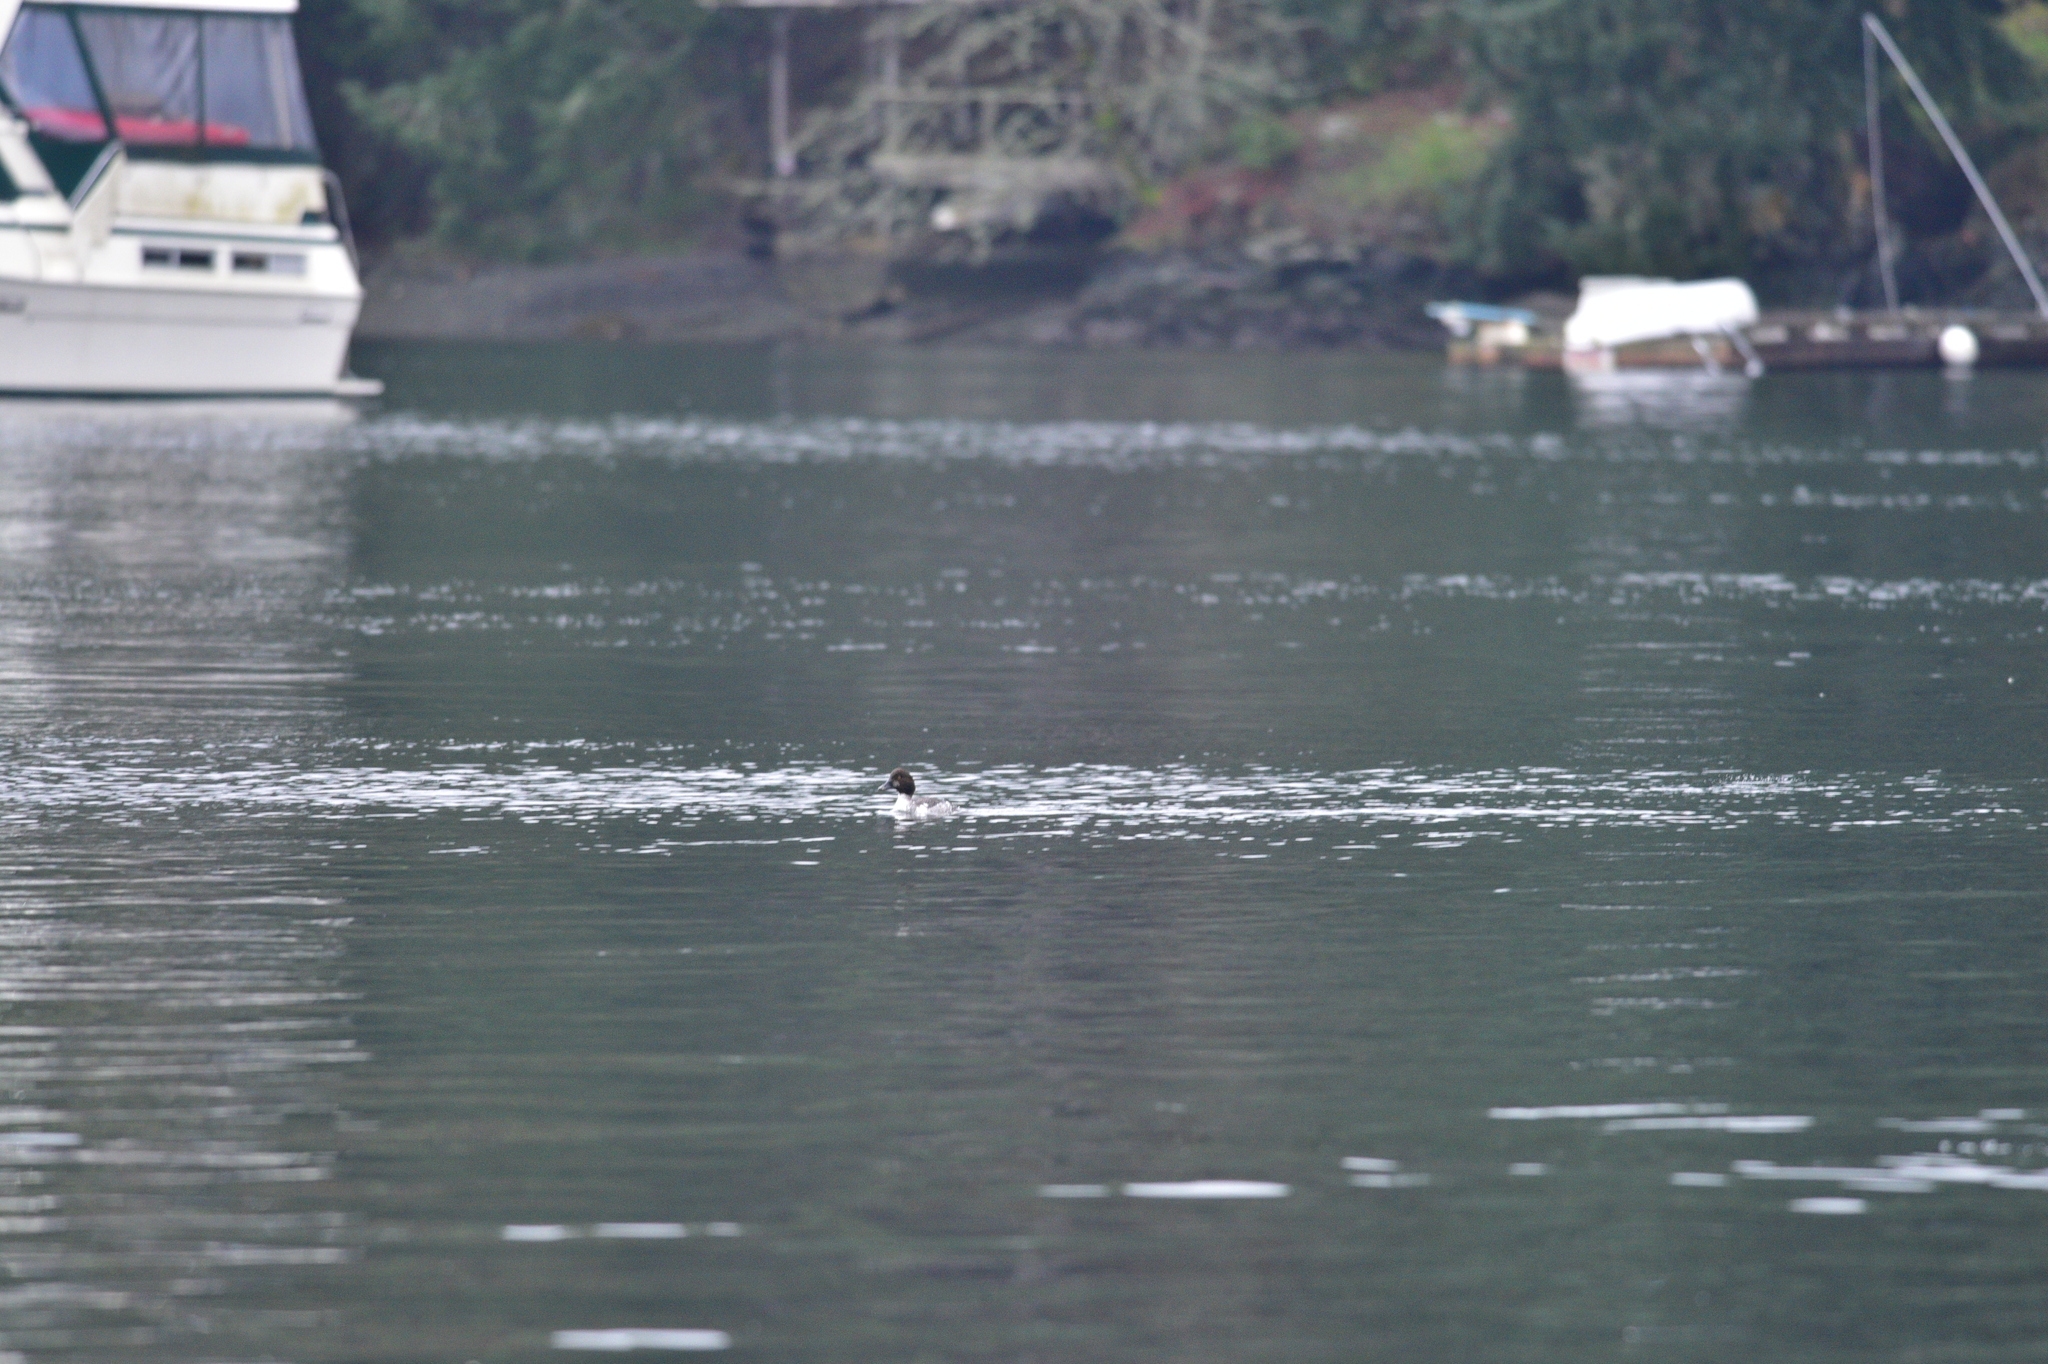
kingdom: Animalia
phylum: Chordata
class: Aves
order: Anseriformes
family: Anatidae
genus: Bucephala
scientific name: Bucephala clangula
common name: Common goldeneye
